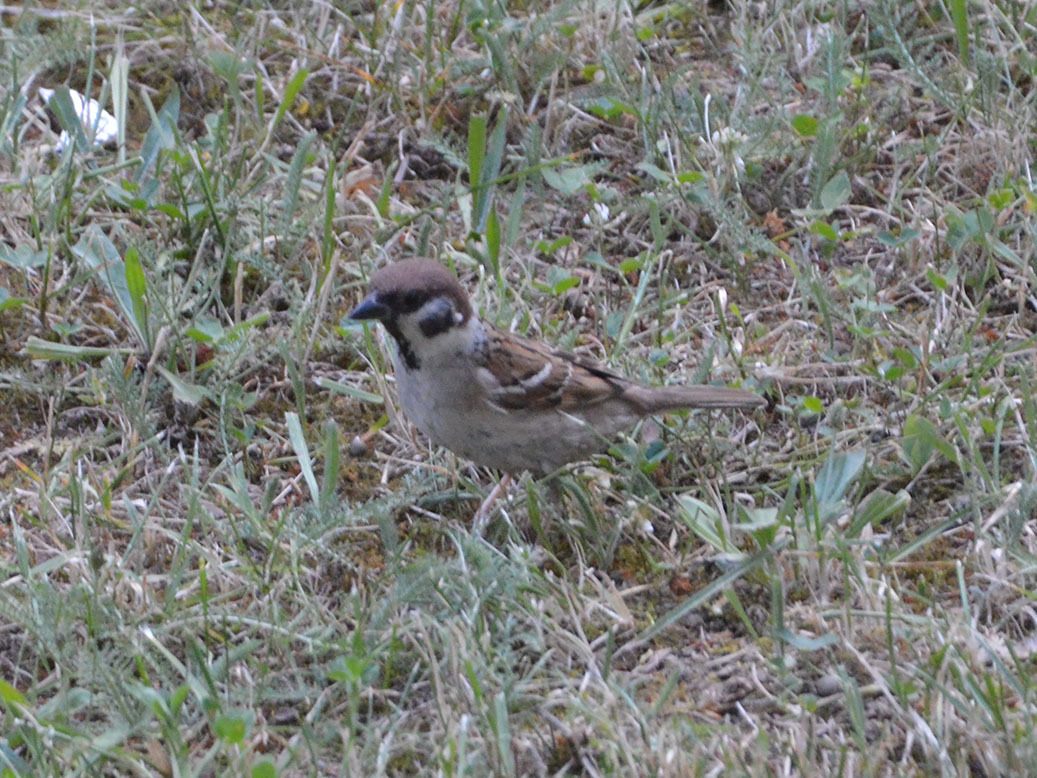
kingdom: Animalia
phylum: Chordata
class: Aves
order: Passeriformes
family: Passeridae
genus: Passer
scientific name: Passer montanus
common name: Eurasian tree sparrow
